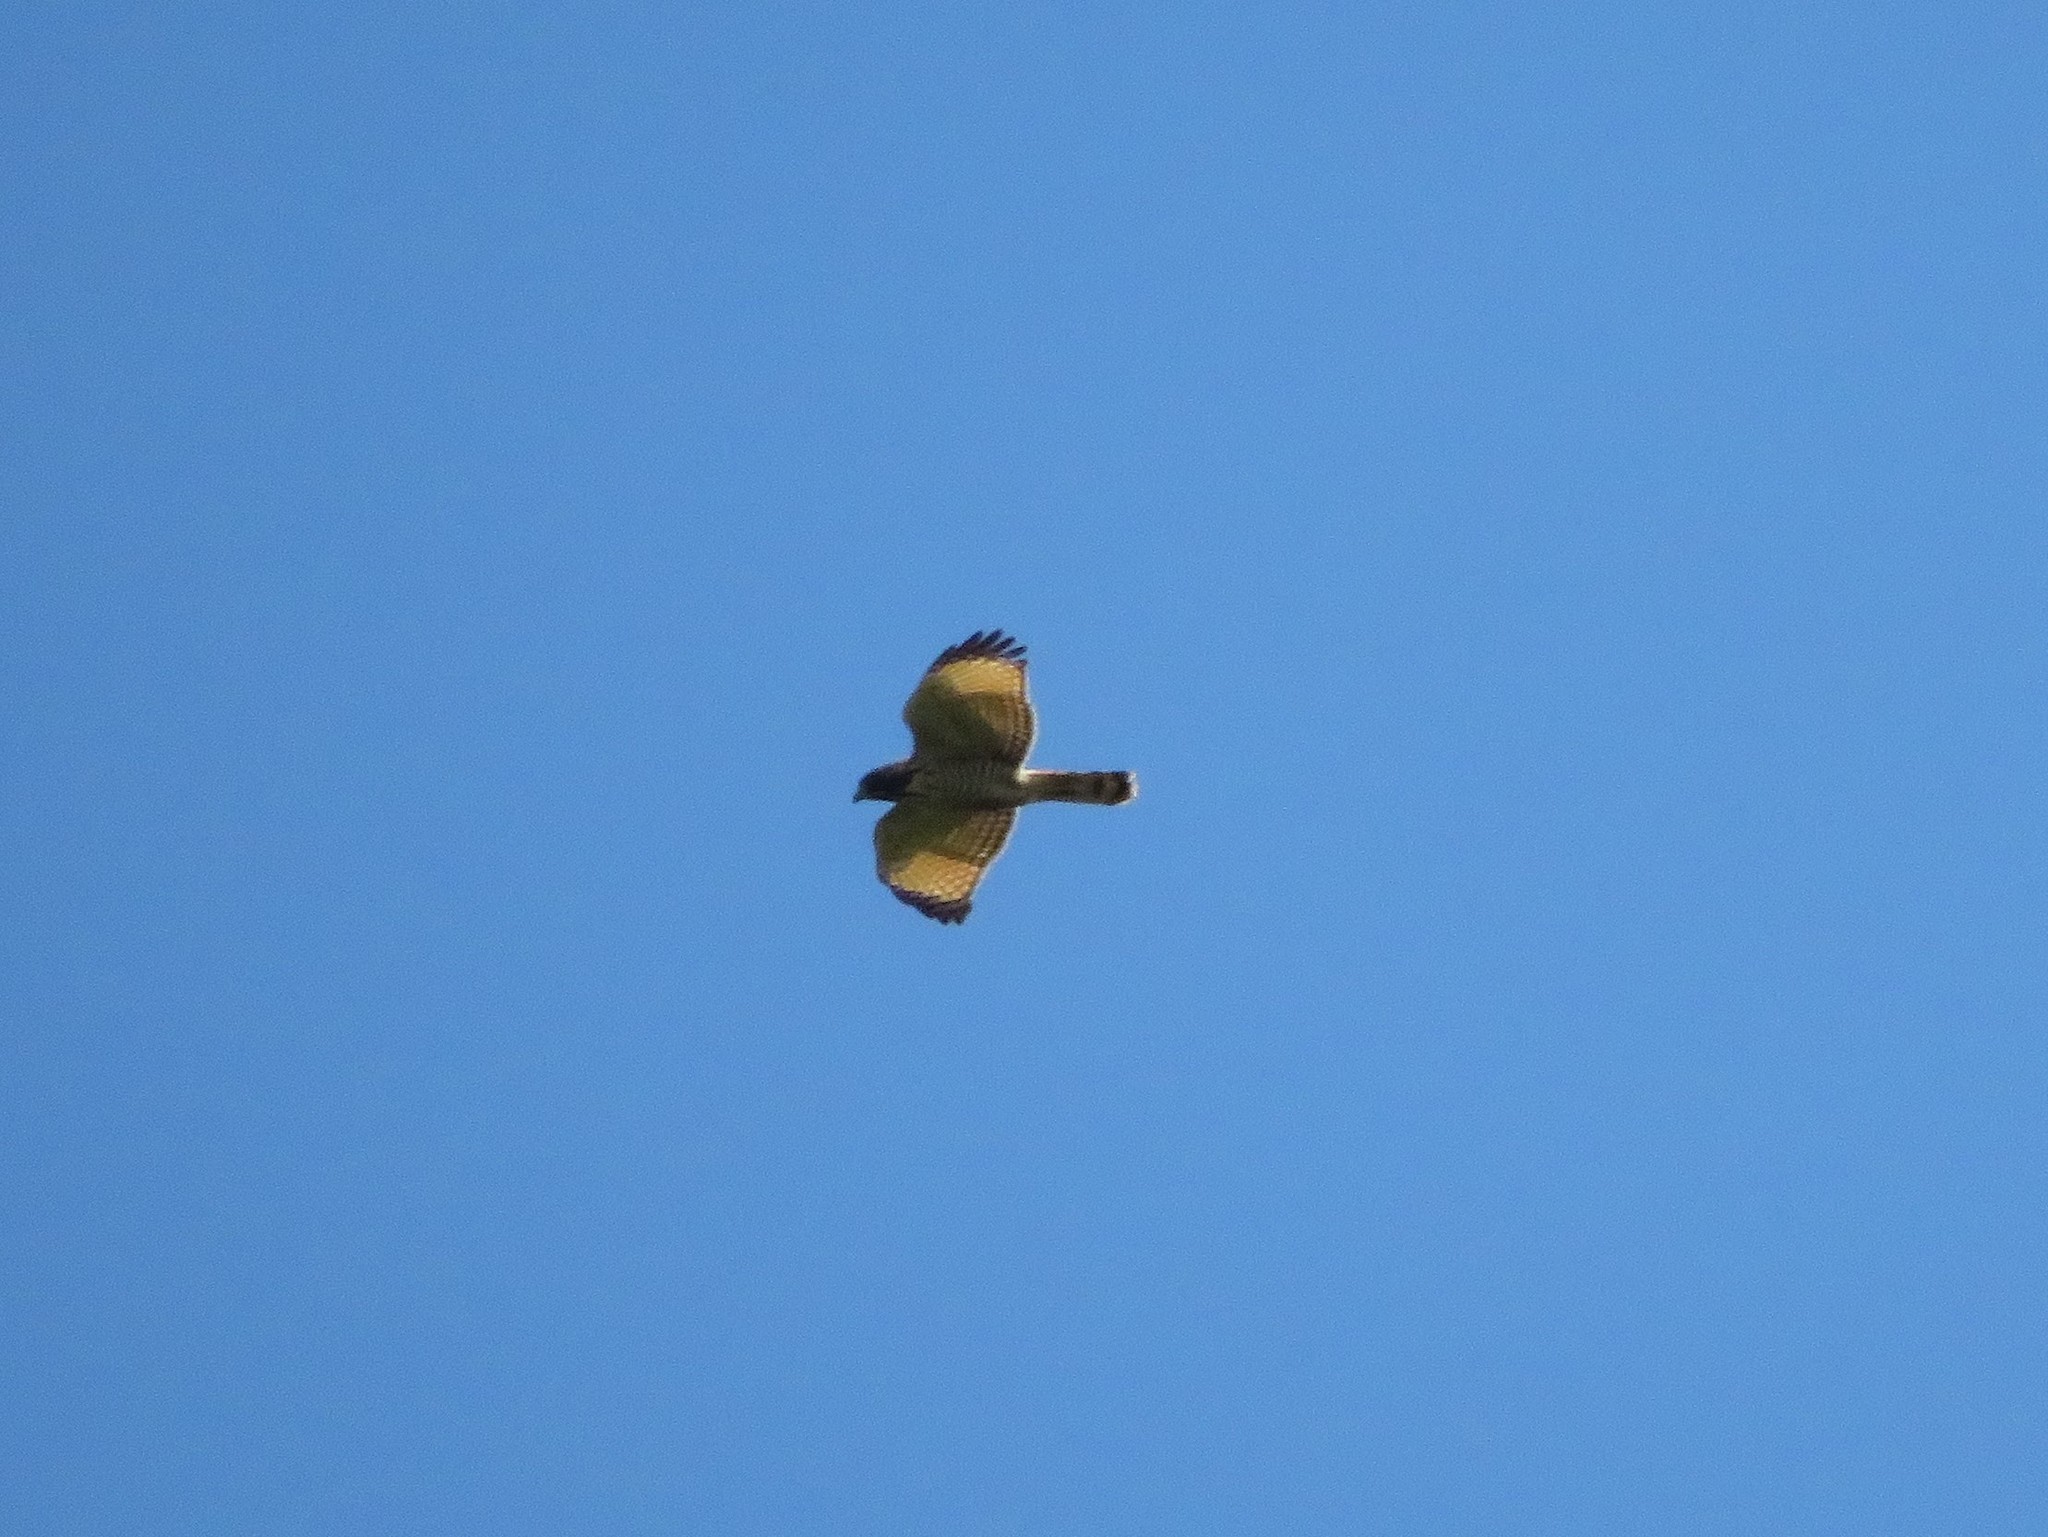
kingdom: Animalia
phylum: Chordata
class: Aves
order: Accipitriformes
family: Accipitridae
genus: Rupornis
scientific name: Rupornis magnirostris
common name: Roadside hawk
